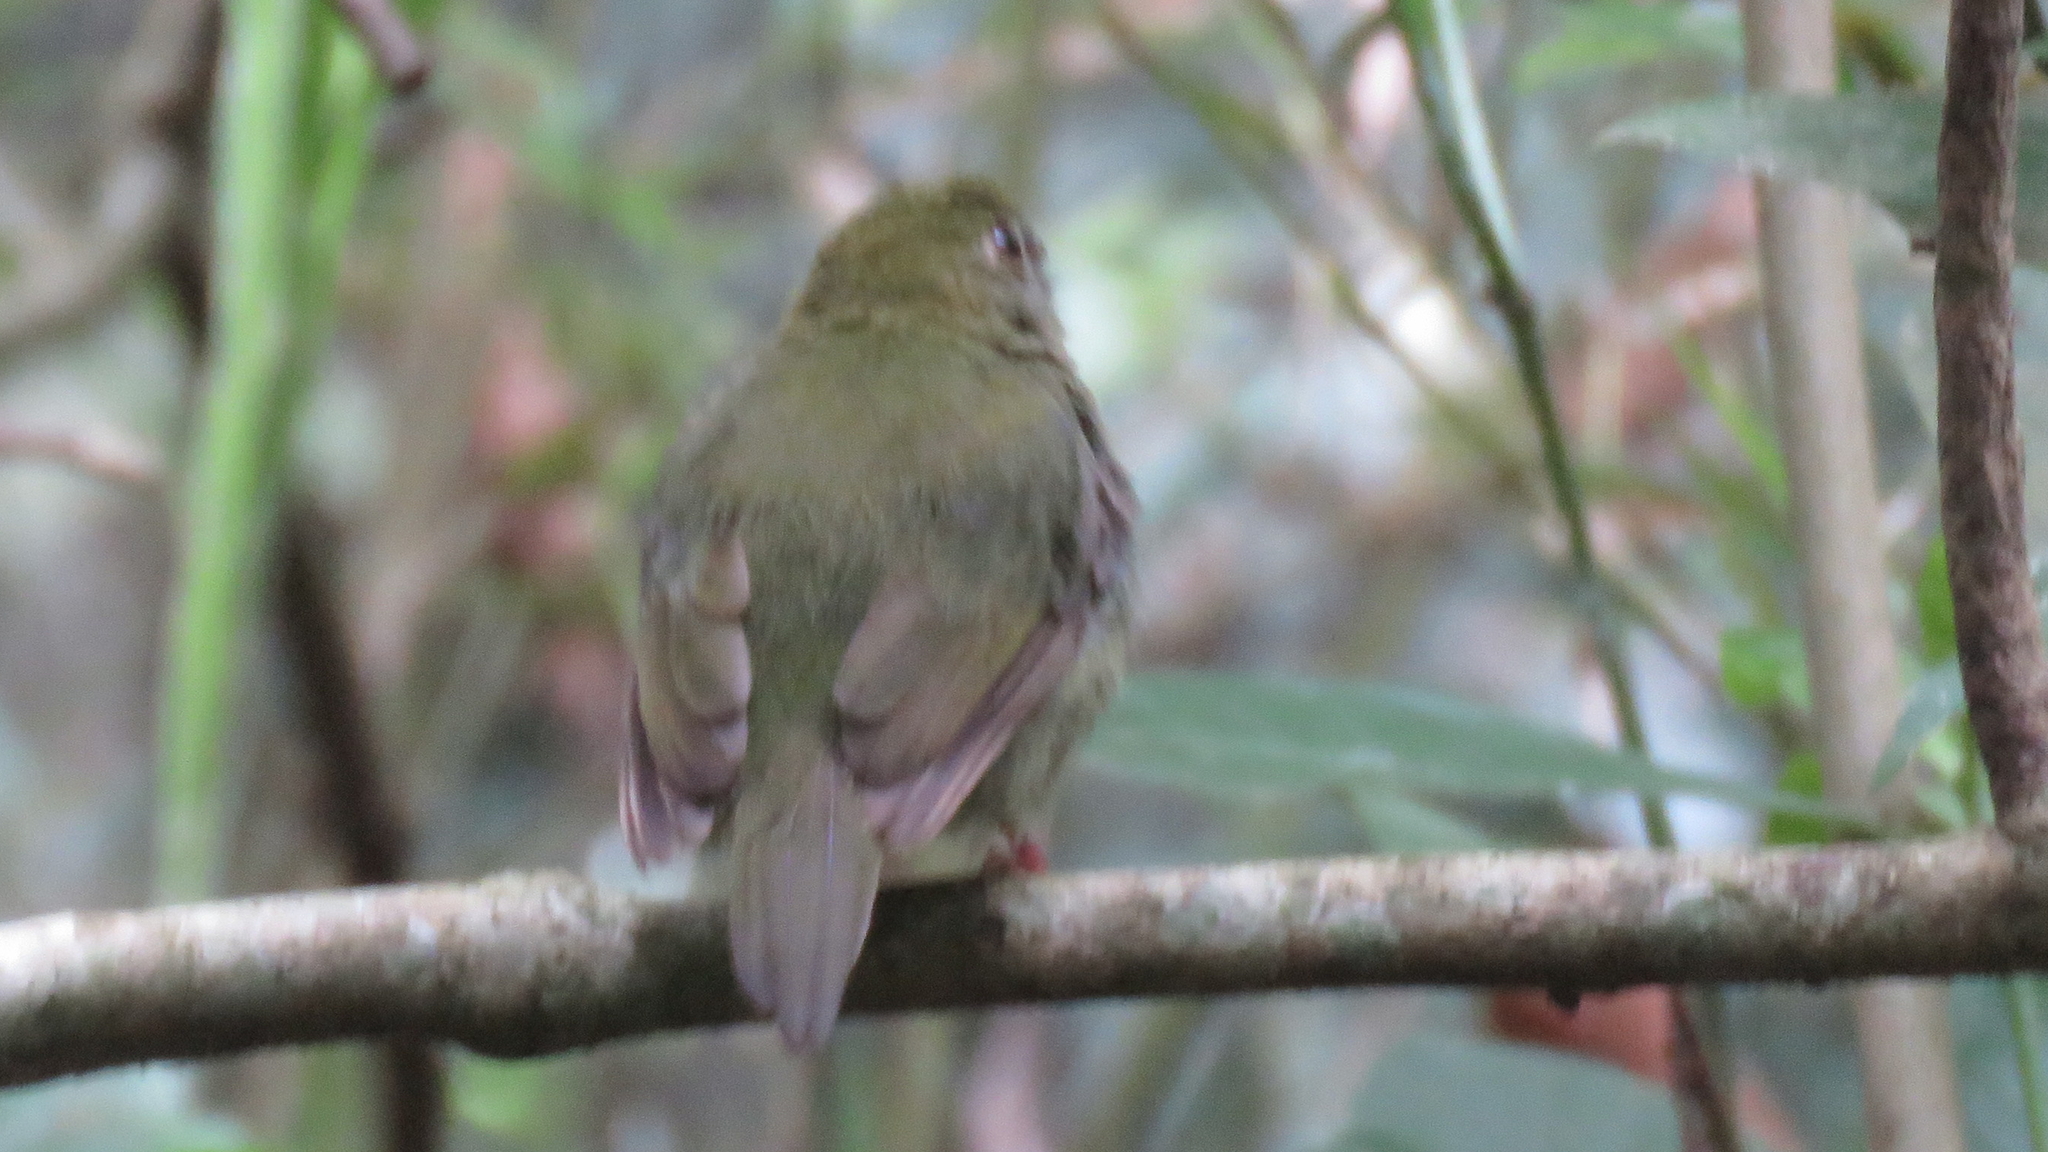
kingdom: Animalia
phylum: Chordata
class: Aves
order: Passeriformes
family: Pipridae
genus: Chiroxiphia
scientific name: Chiroxiphia caudata
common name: Blue manakin
